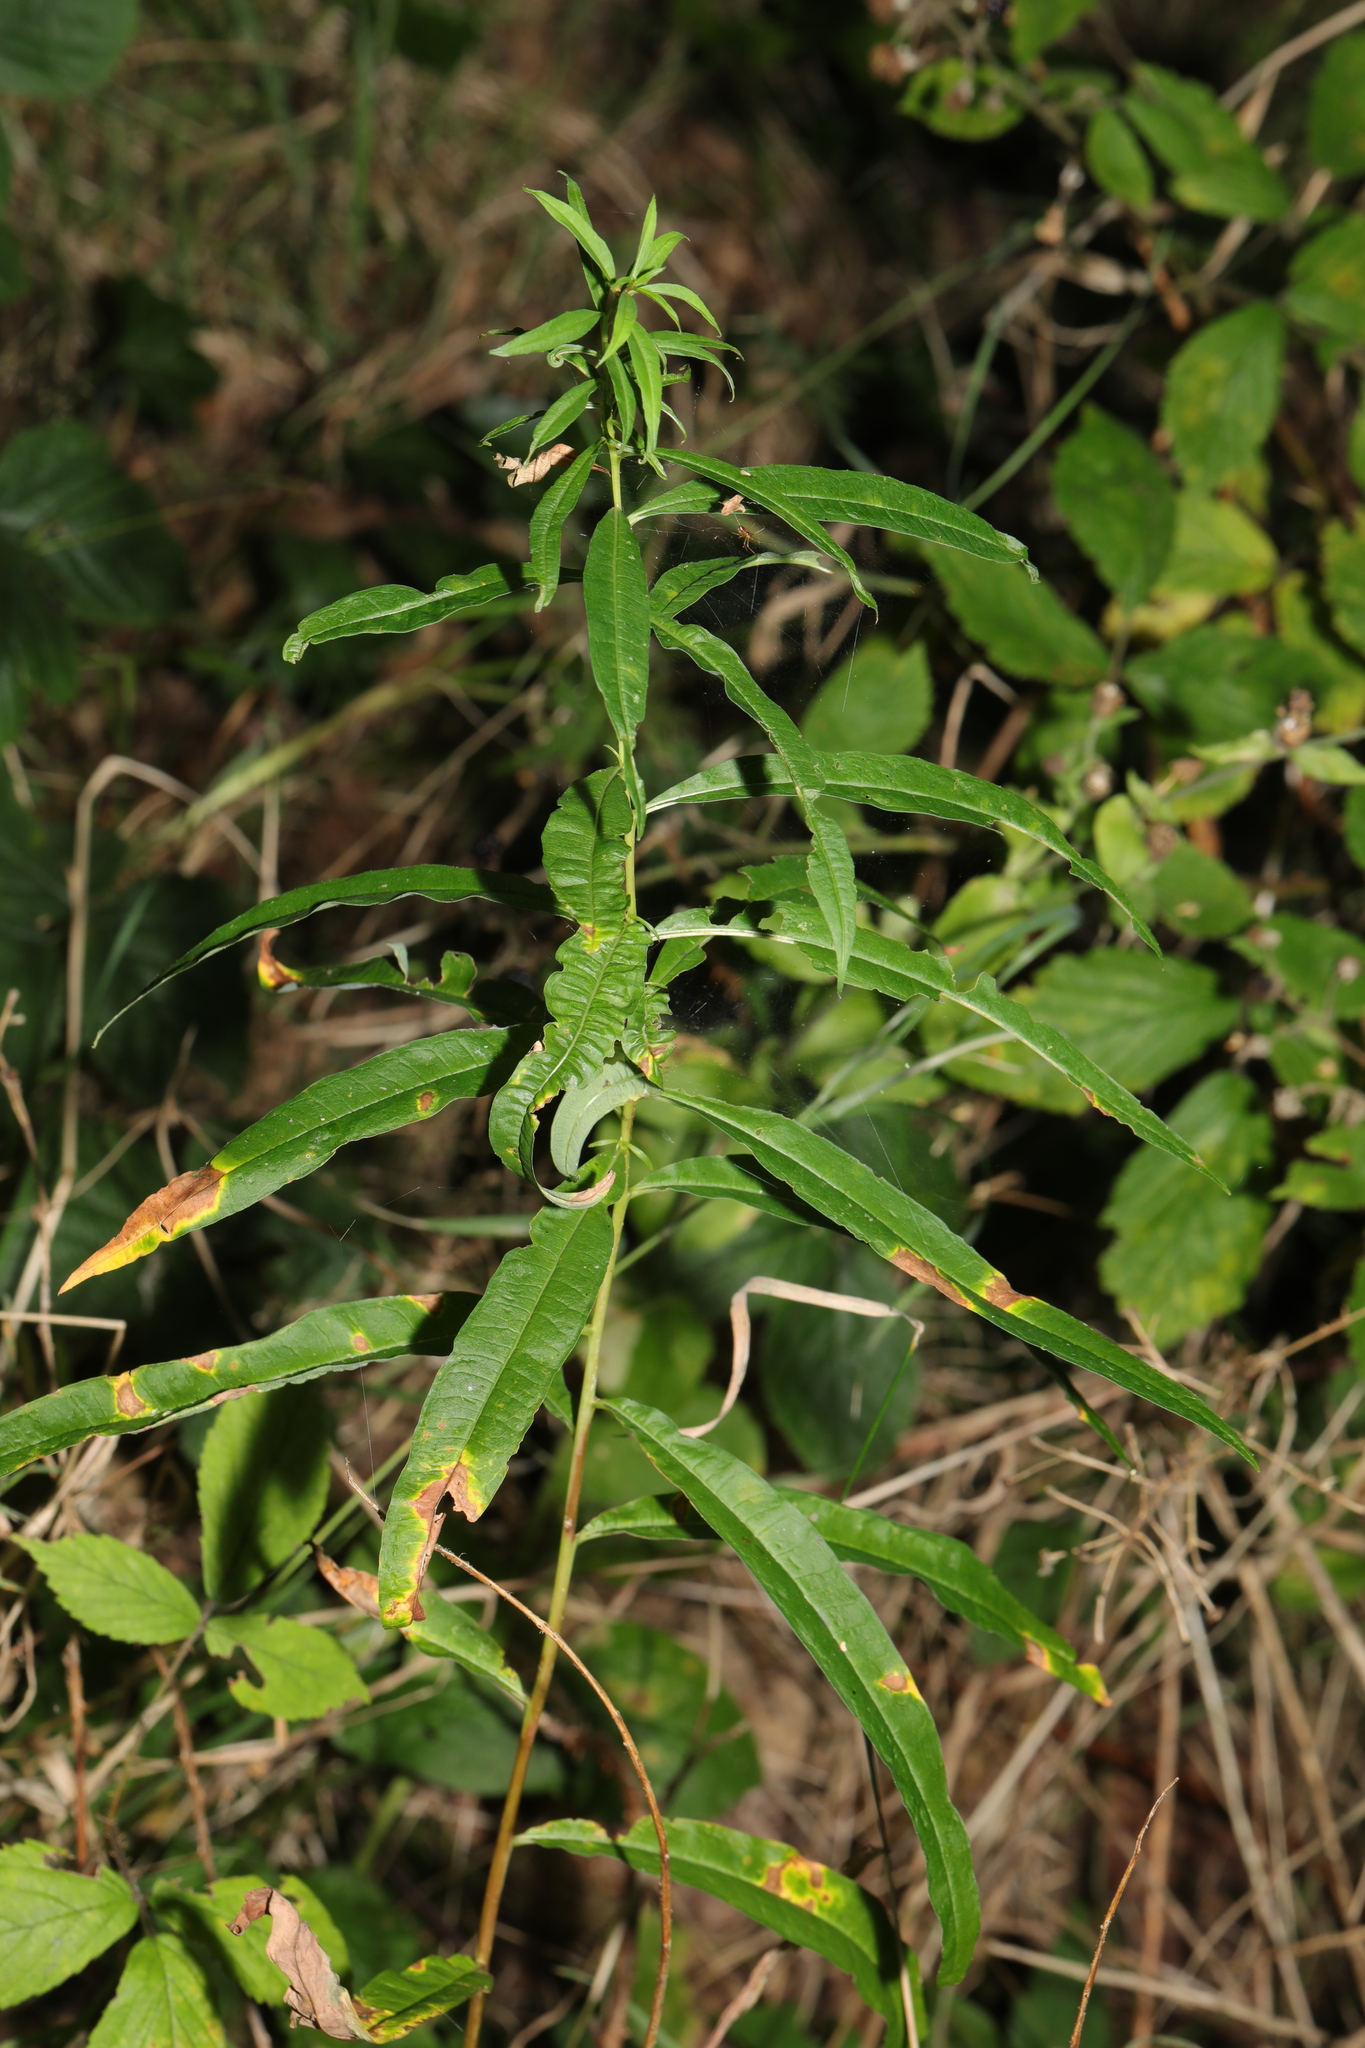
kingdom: Plantae
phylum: Tracheophyta
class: Magnoliopsida
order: Myrtales
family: Onagraceae
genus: Chamaenerion
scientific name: Chamaenerion angustifolium
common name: Fireweed
